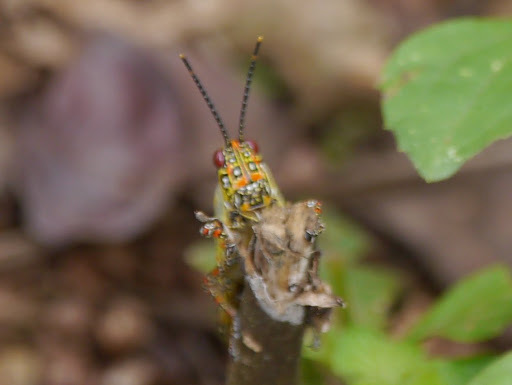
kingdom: Animalia
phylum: Arthropoda
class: Insecta
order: Orthoptera
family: Pyrgomorphidae
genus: Zonocerus
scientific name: Zonocerus variegatus
